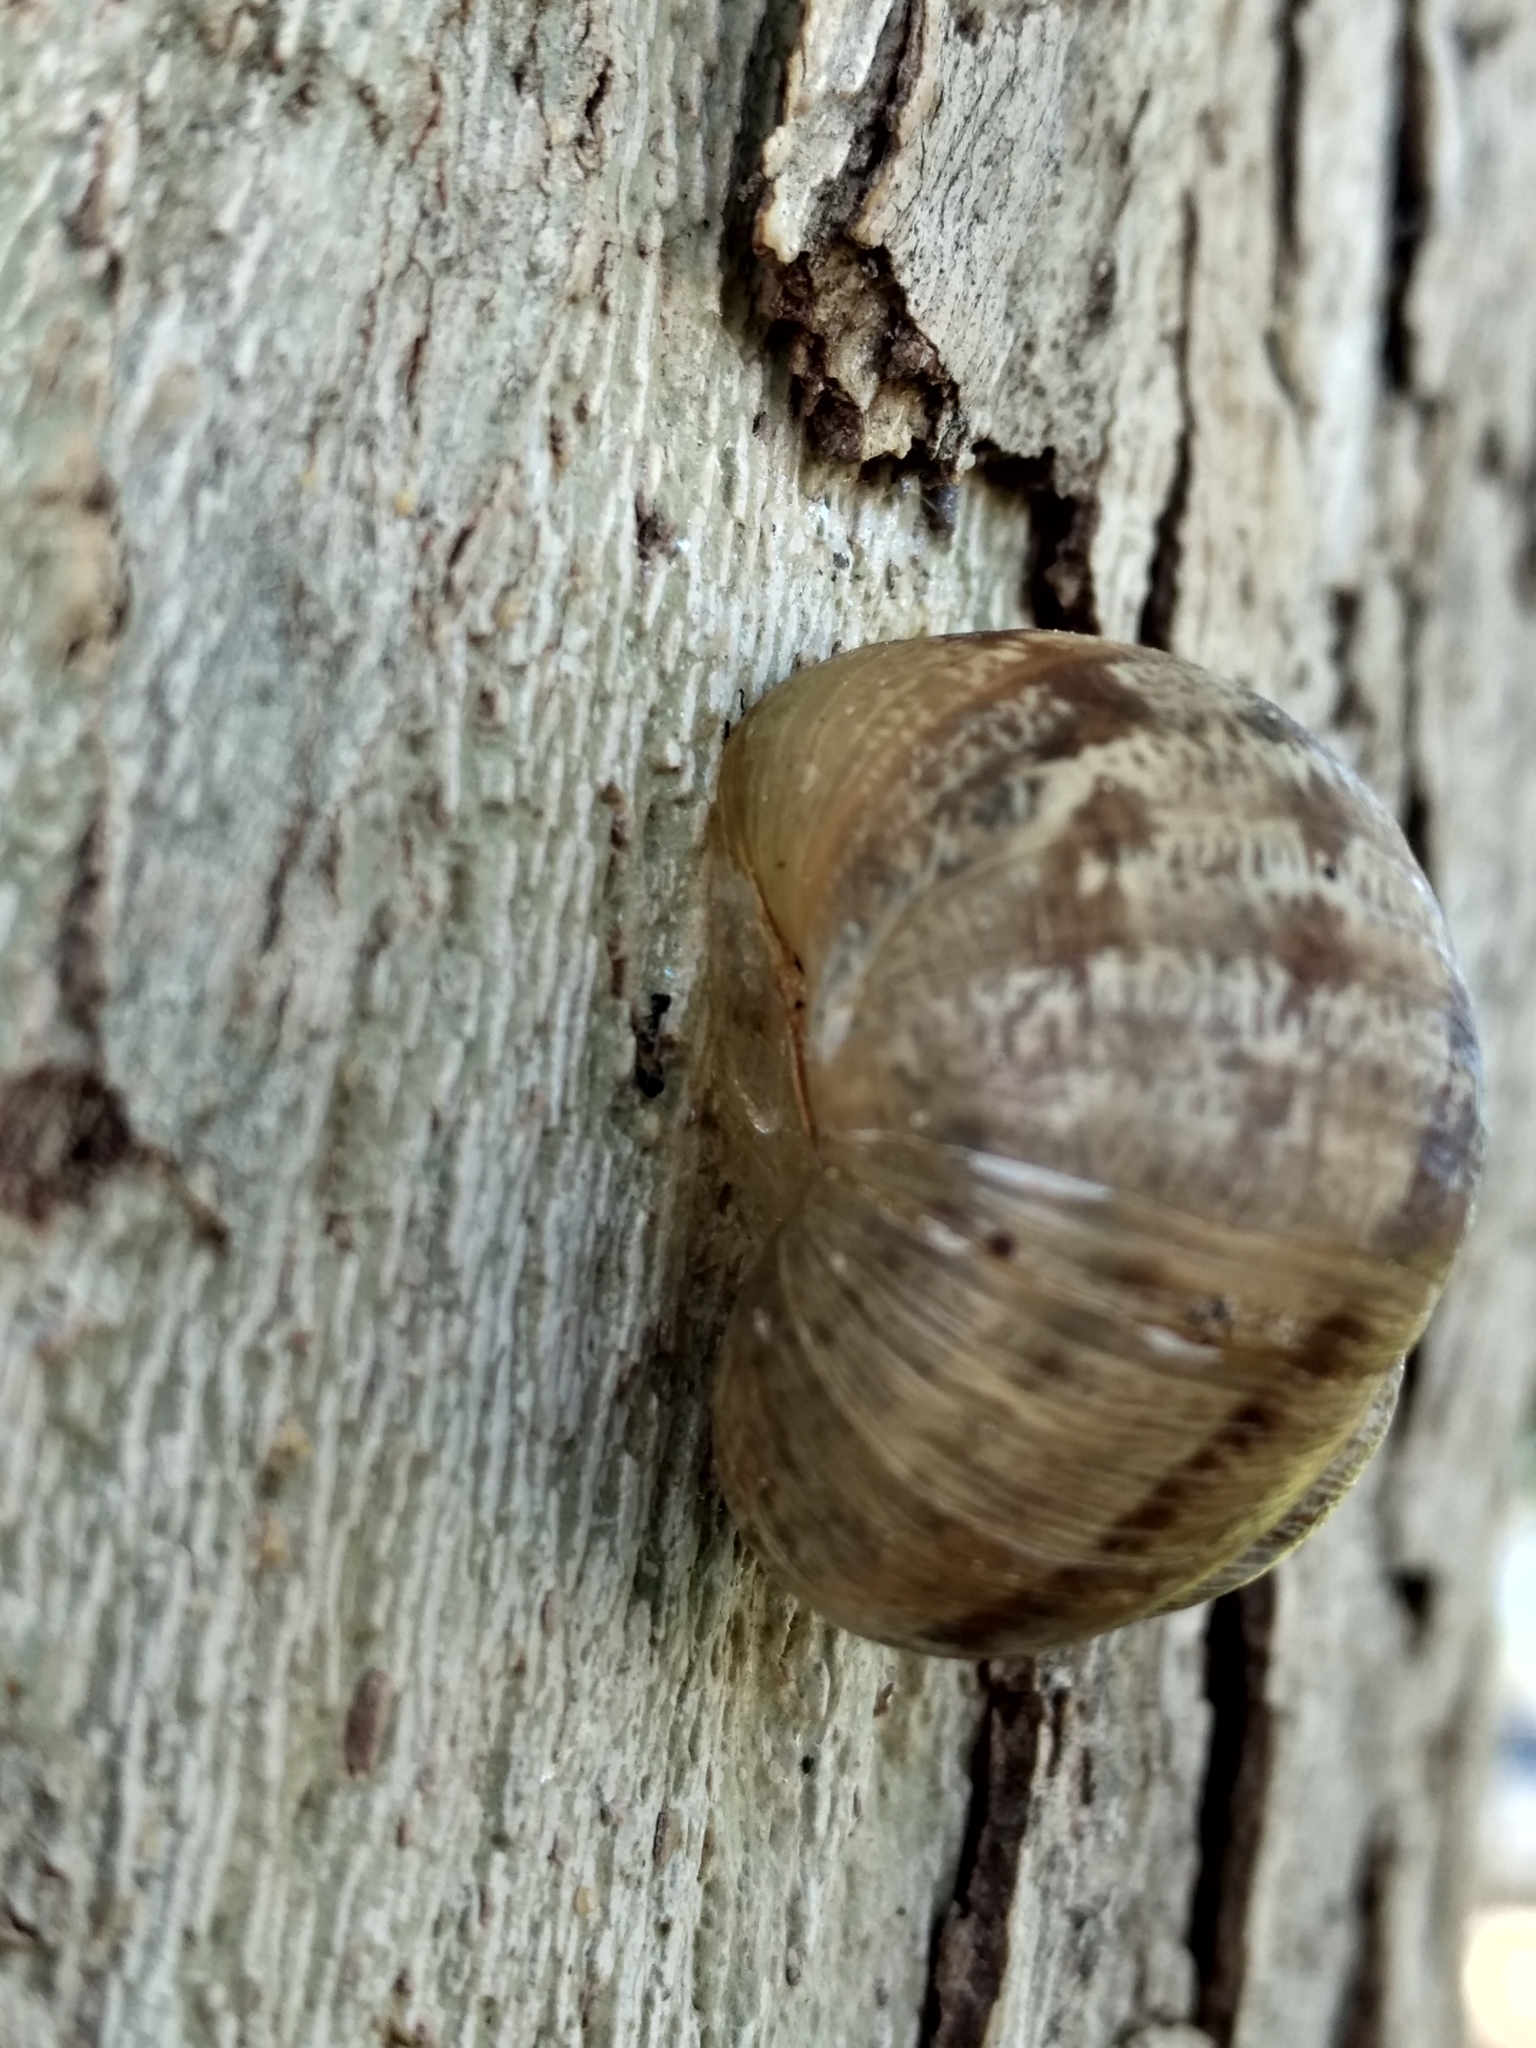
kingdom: Animalia
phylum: Mollusca
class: Gastropoda
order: Stylommatophora
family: Helicidae
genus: Cornu
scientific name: Cornu aspersum
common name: Brown garden snail
